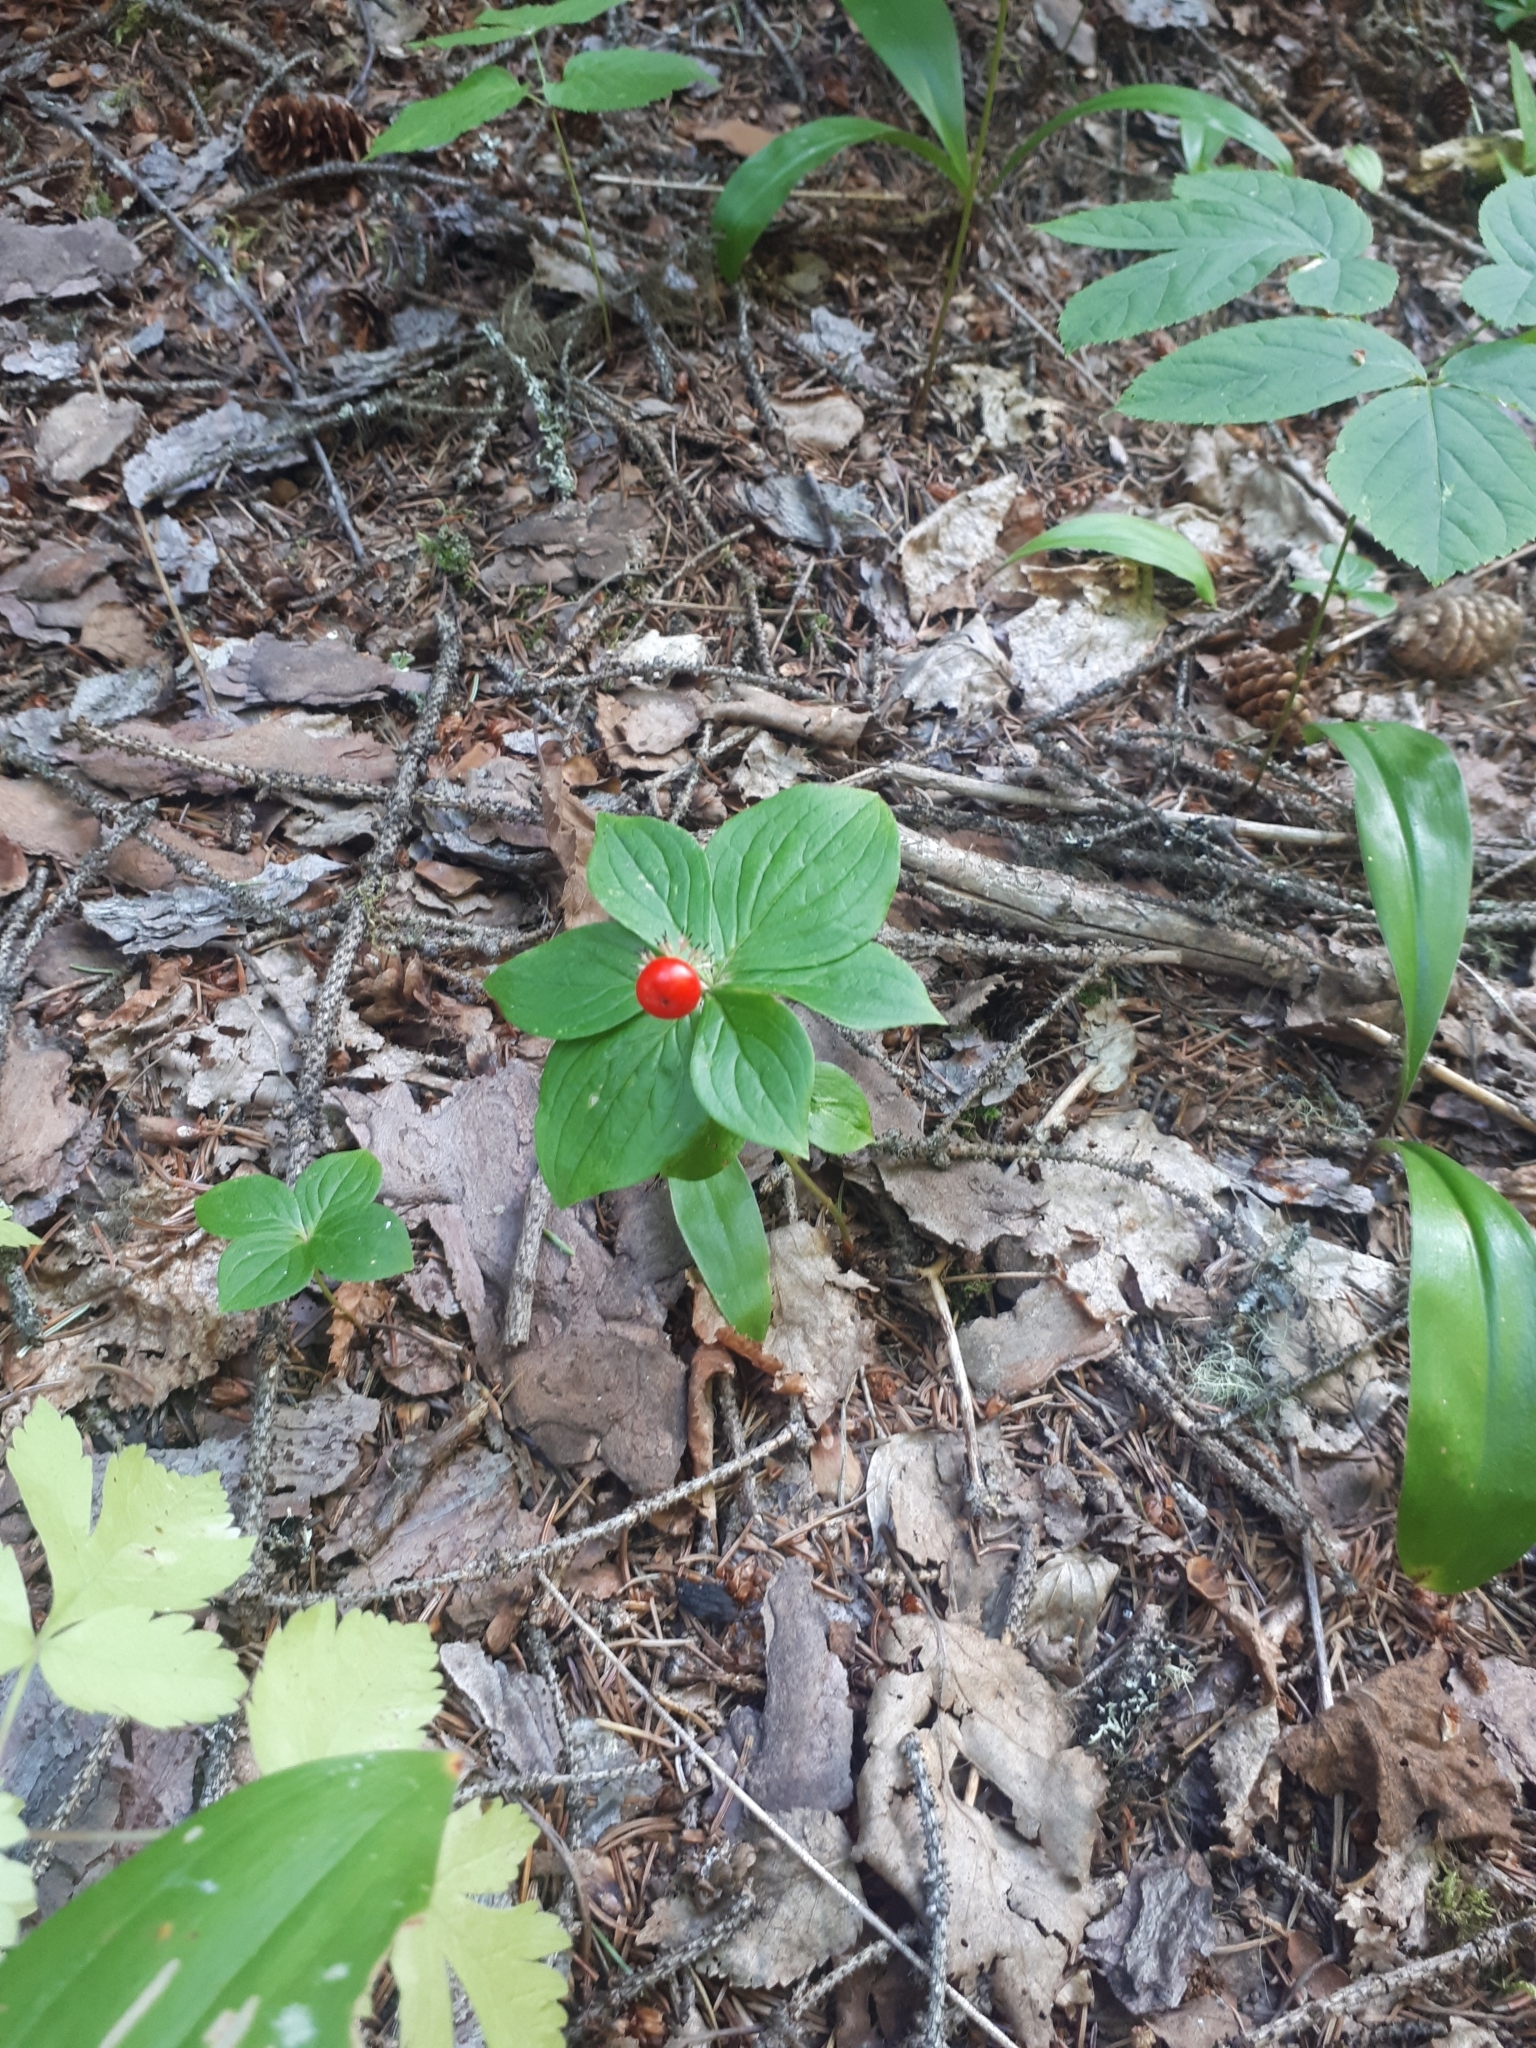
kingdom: Plantae
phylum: Tracheophyta
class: Magnoliopsida
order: Cornales
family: Cornaceae
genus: Cornus
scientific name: Cornus unalaschkensis
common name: Alaska bunchberry
